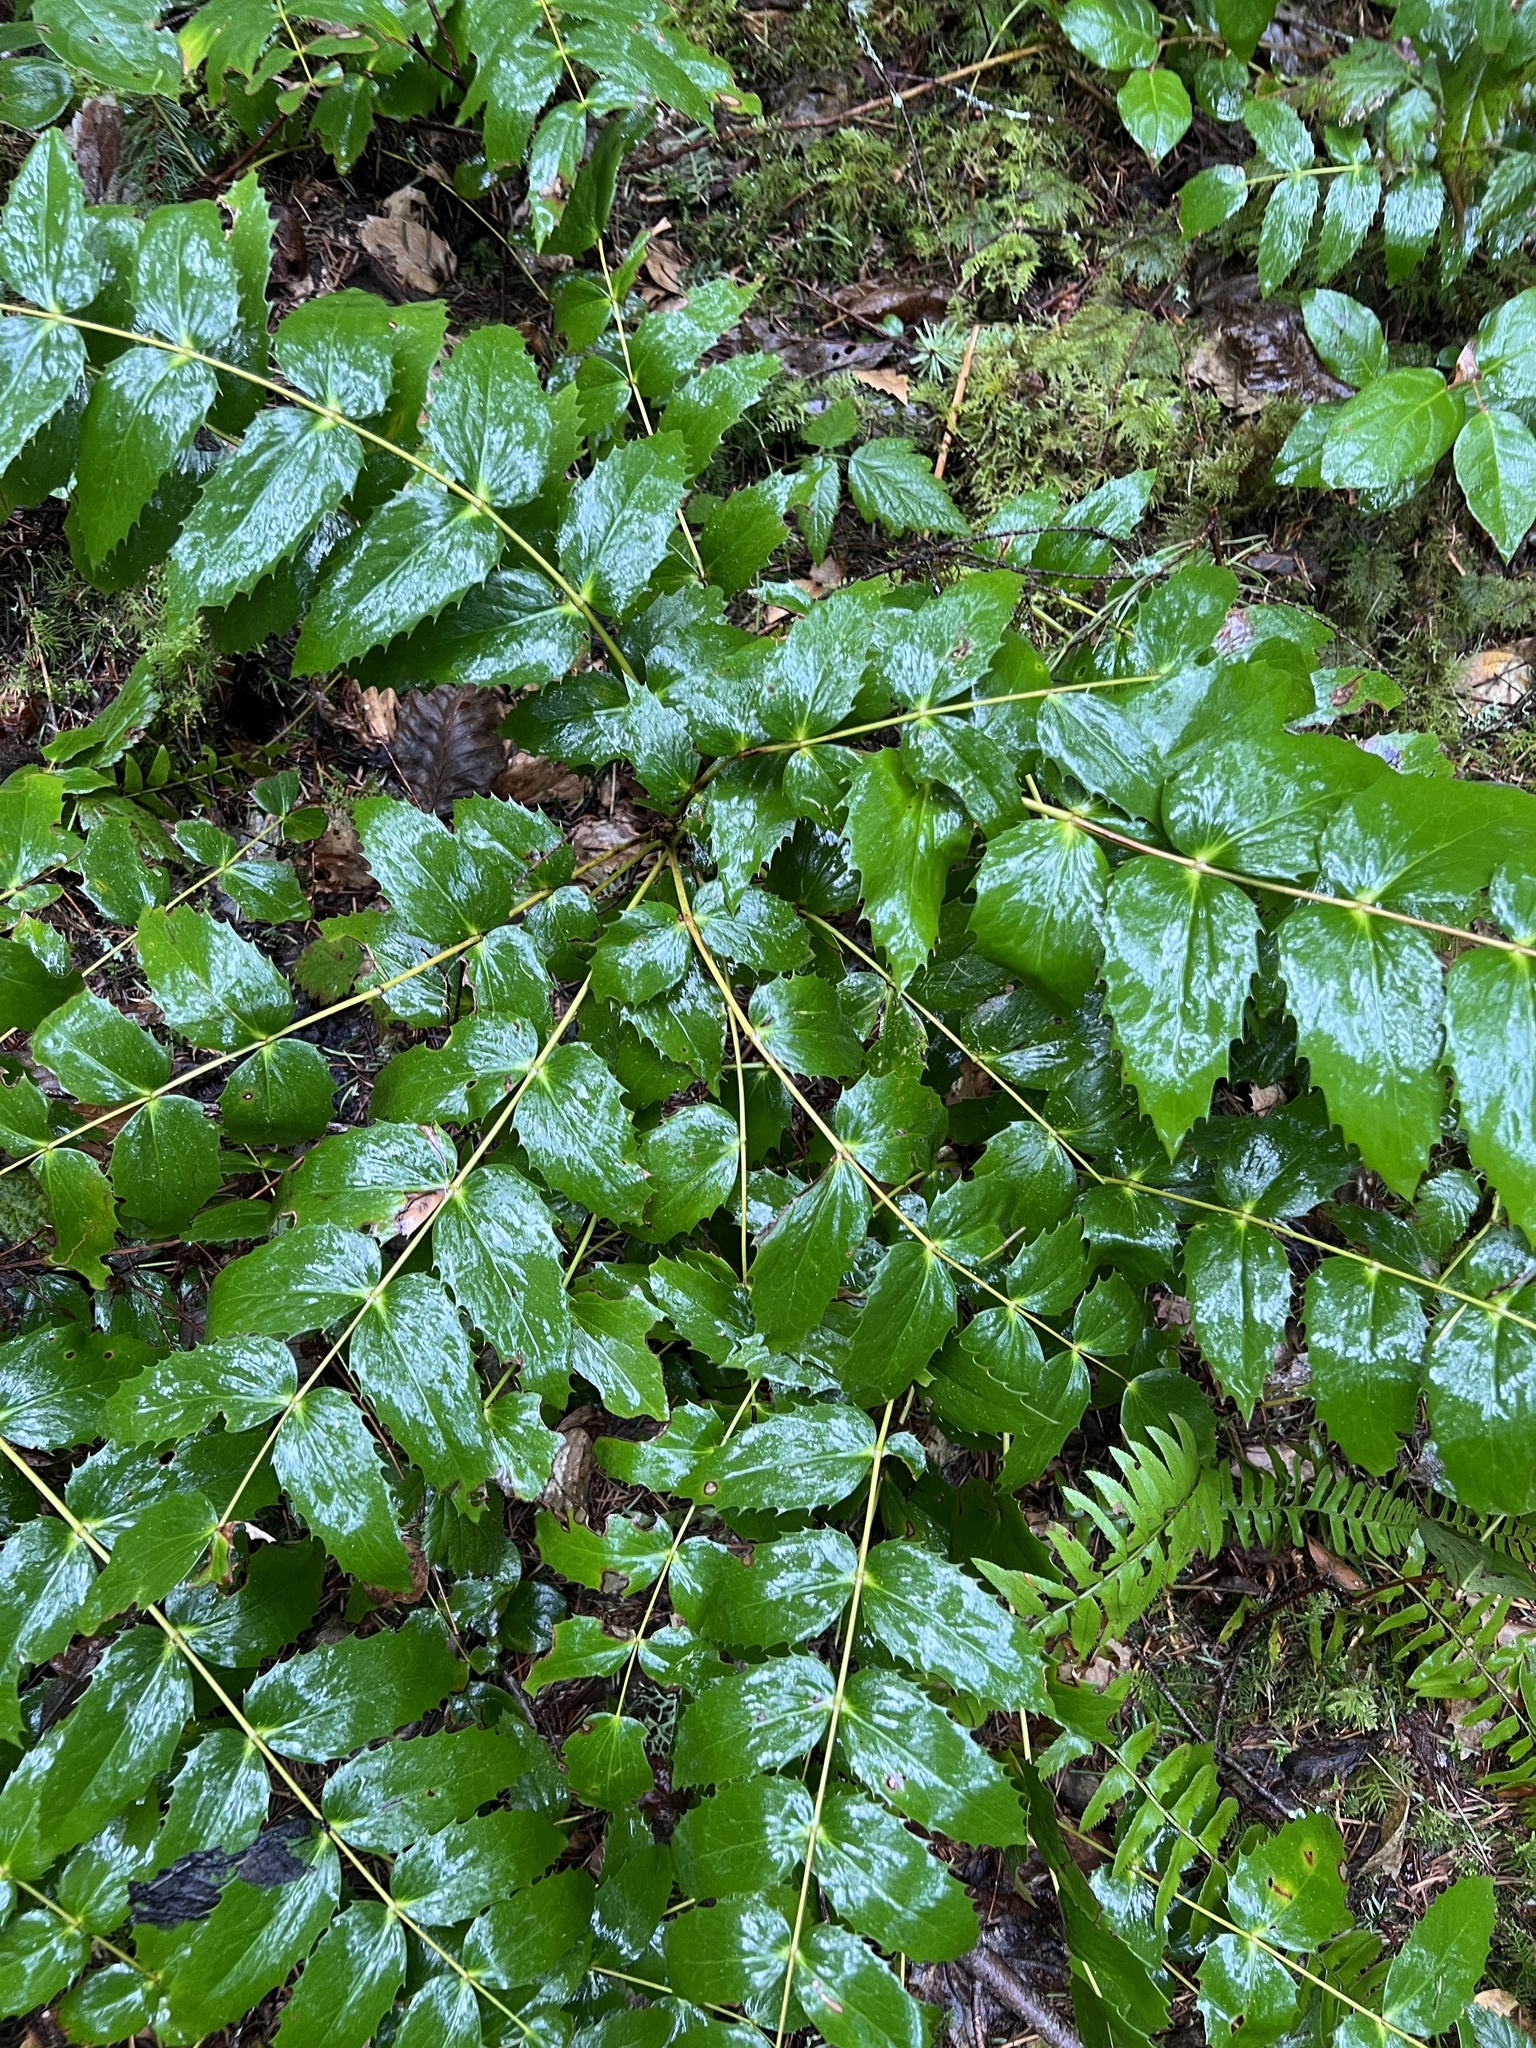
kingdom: Plantae
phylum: Tracheophyta
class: Magnoliopsida
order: Ranunculales
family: Berberidaceae
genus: Mahonia
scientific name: Mahonia nervosa
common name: Cascade oregon-grape
